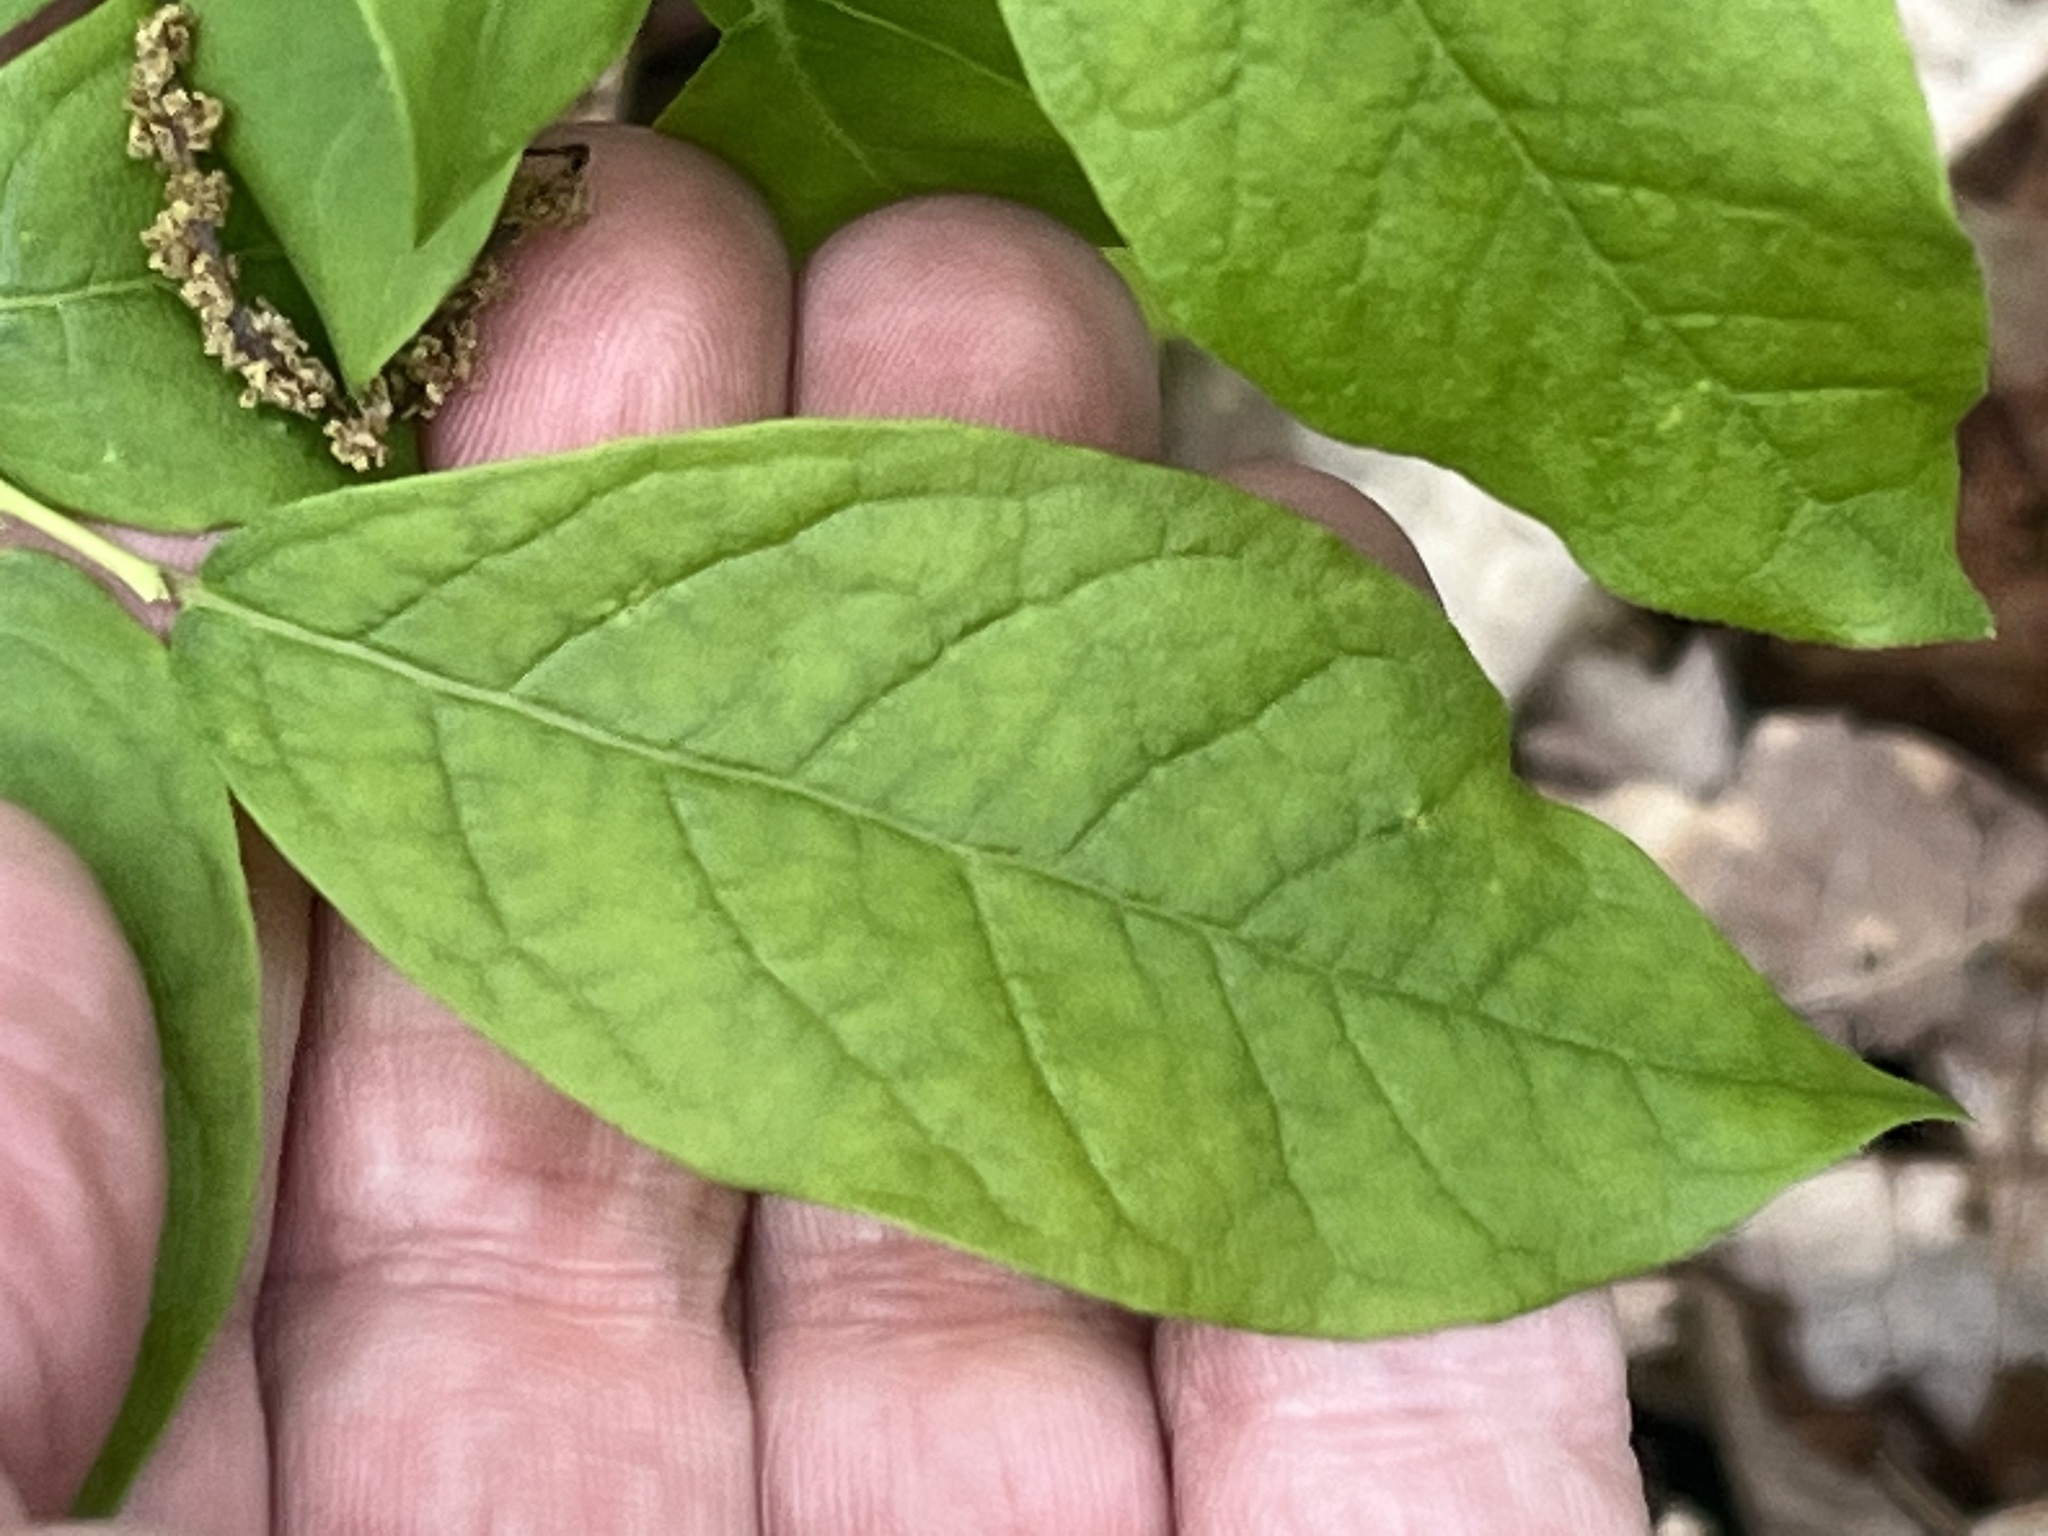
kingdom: Plantae
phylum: Tracheophyta
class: Magnoliopsida
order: Ericales
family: Ericaceae
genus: Vaccinium
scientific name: Vaccinium stamineum
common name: Deerberry
